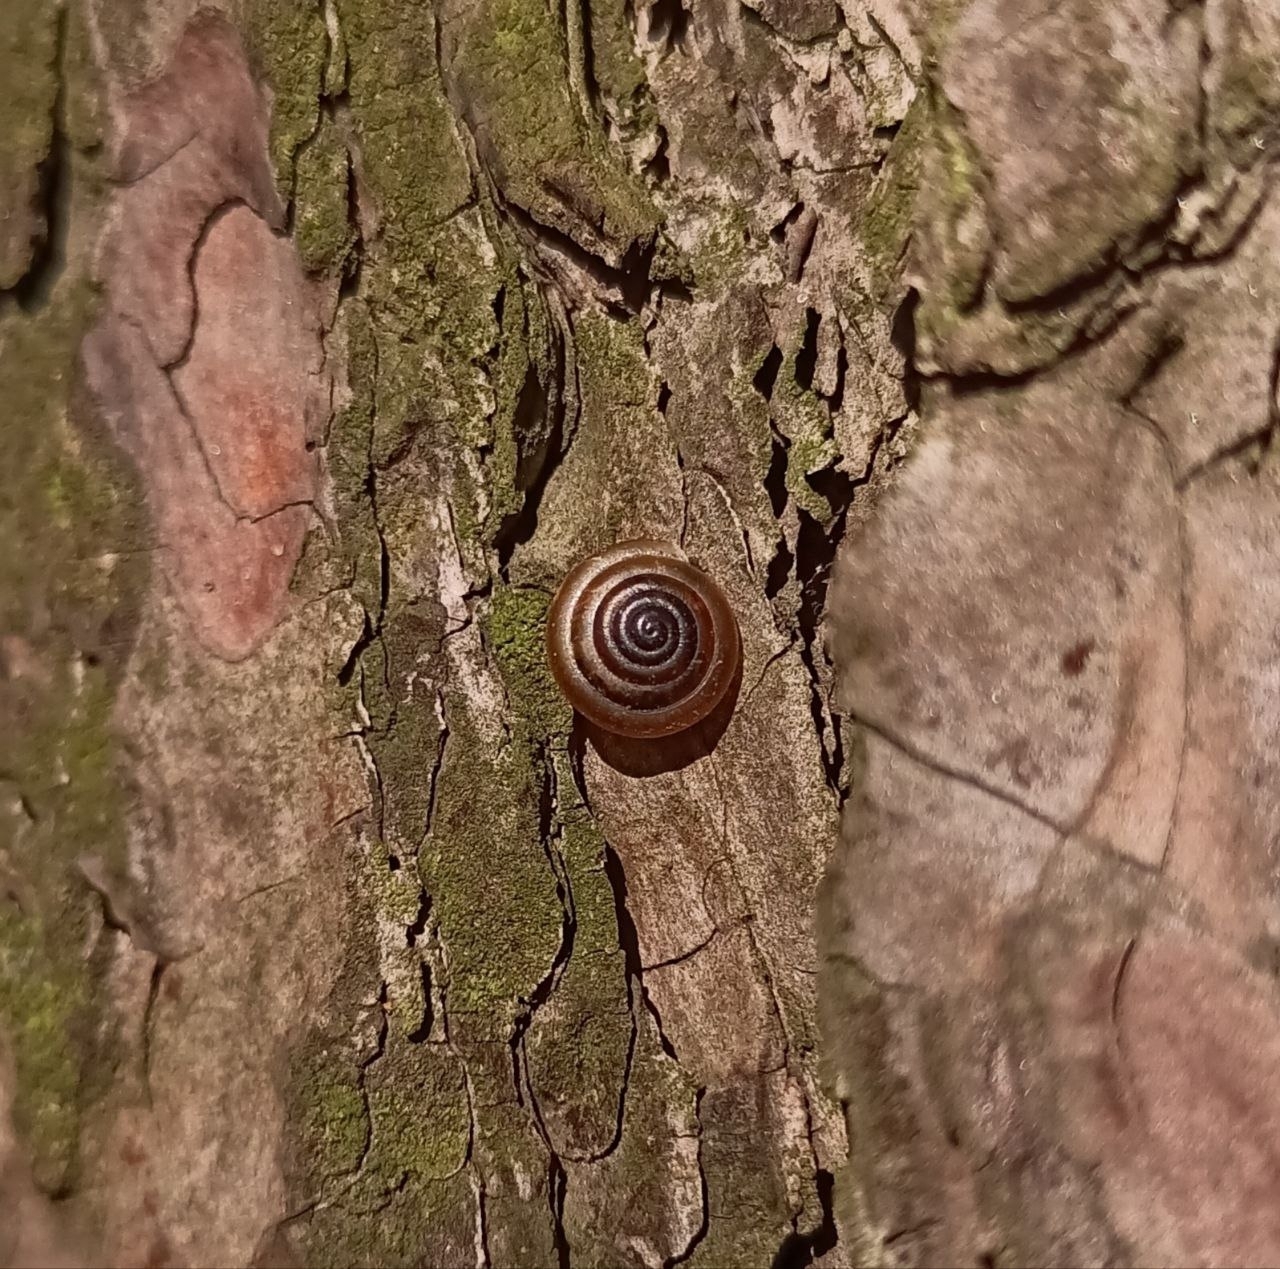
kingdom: Animalia
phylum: Mollusca
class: Gastropoda
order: Stylommatophora
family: Hygromiidae
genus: Trochulus
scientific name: Trochulus hispidus
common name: Hairy snail
